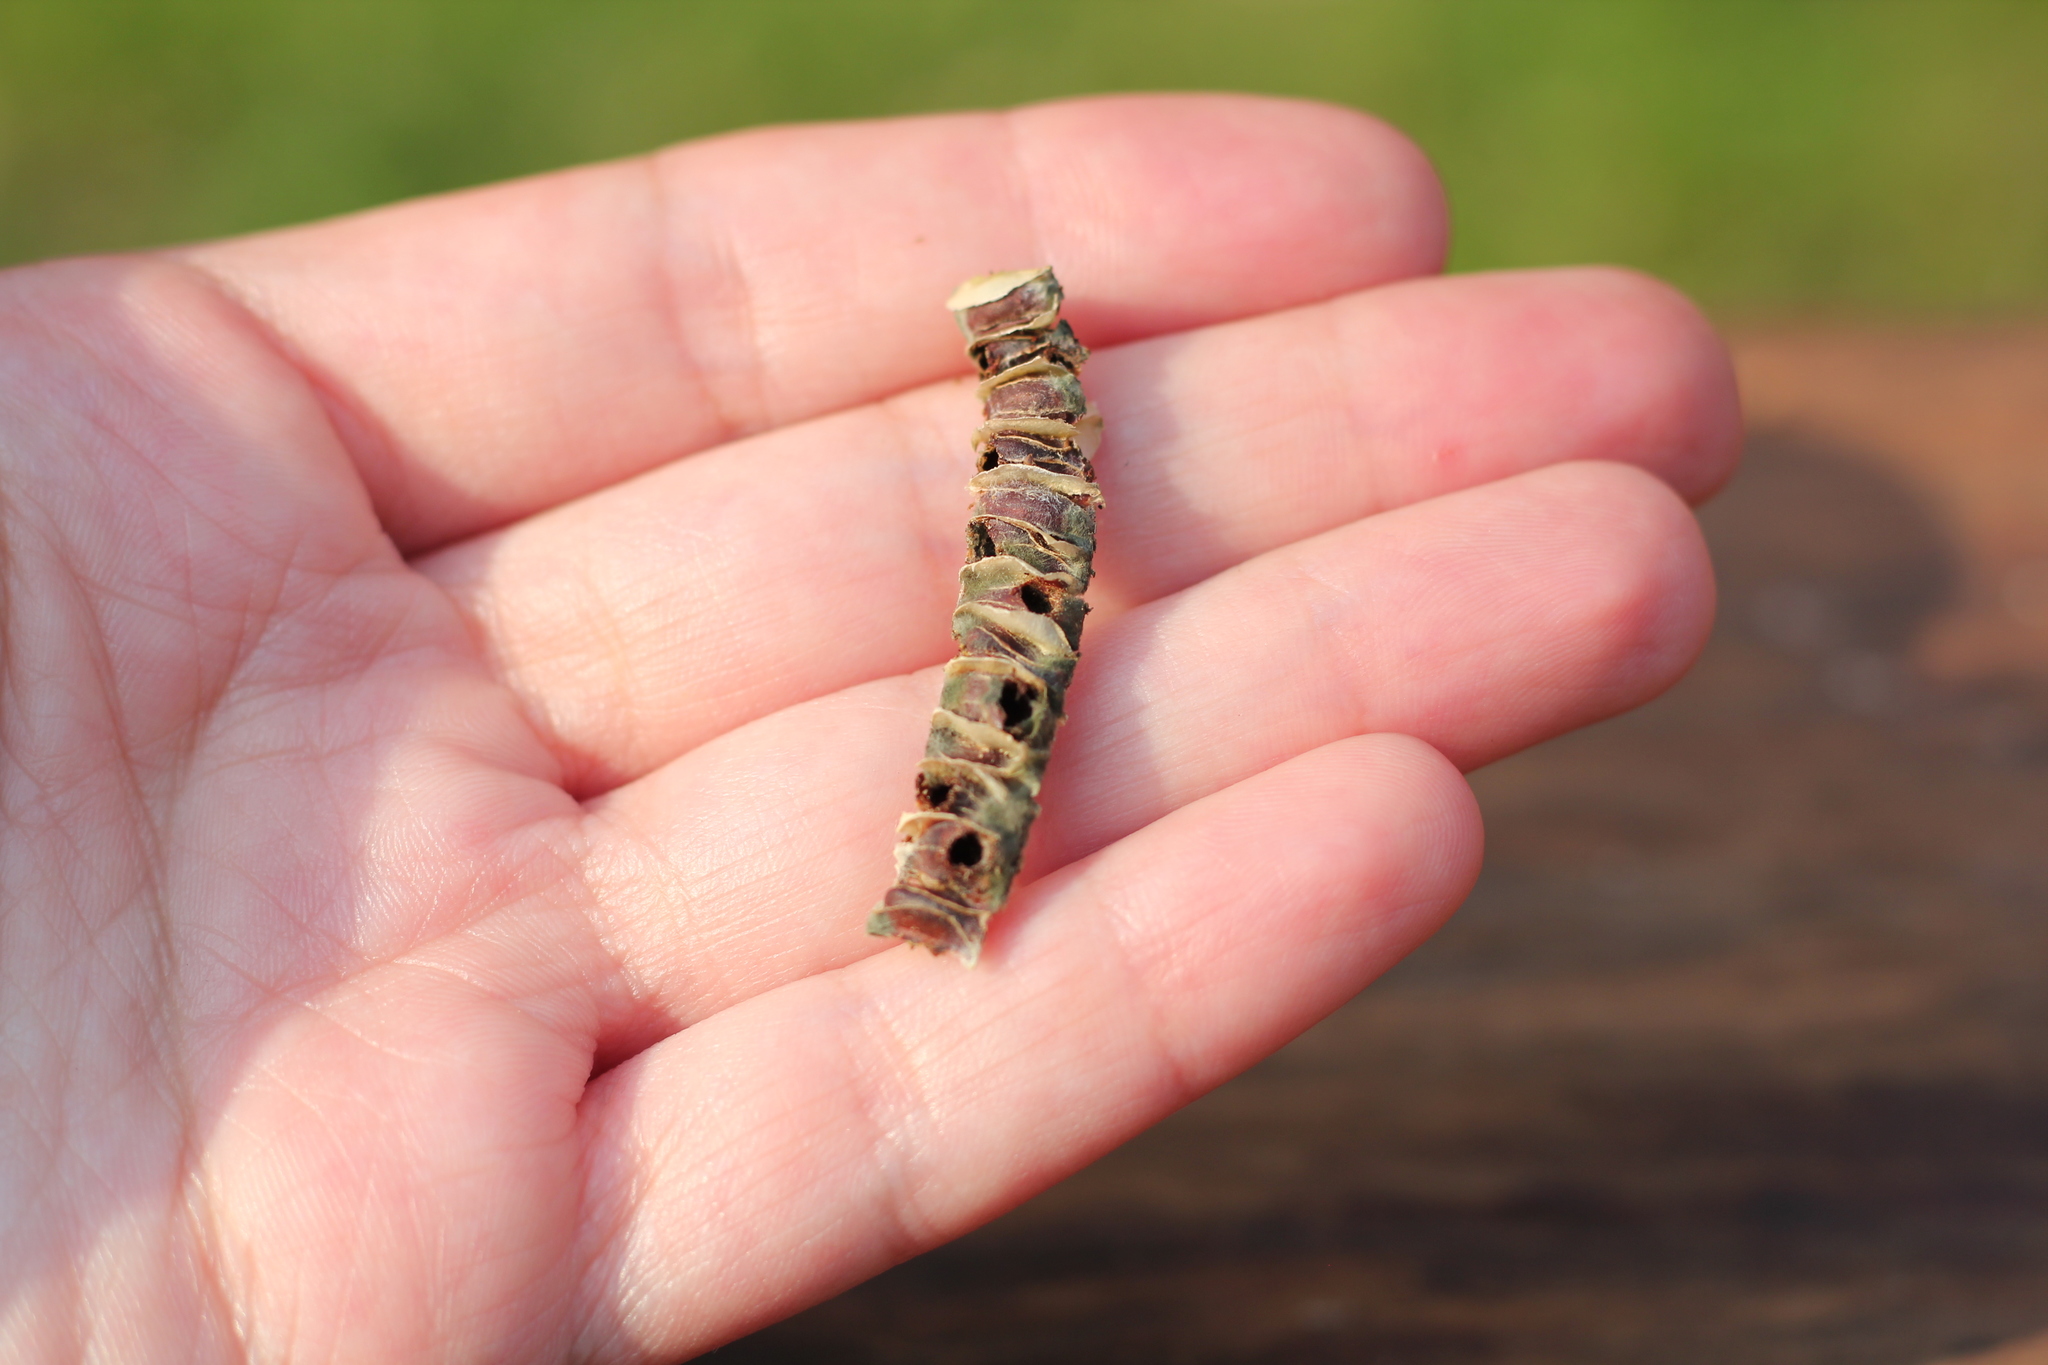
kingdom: Animalia
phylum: Arthropoda
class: Insecta
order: Coleoptera
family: Chrysomelidae
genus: Sennius
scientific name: Sennius
